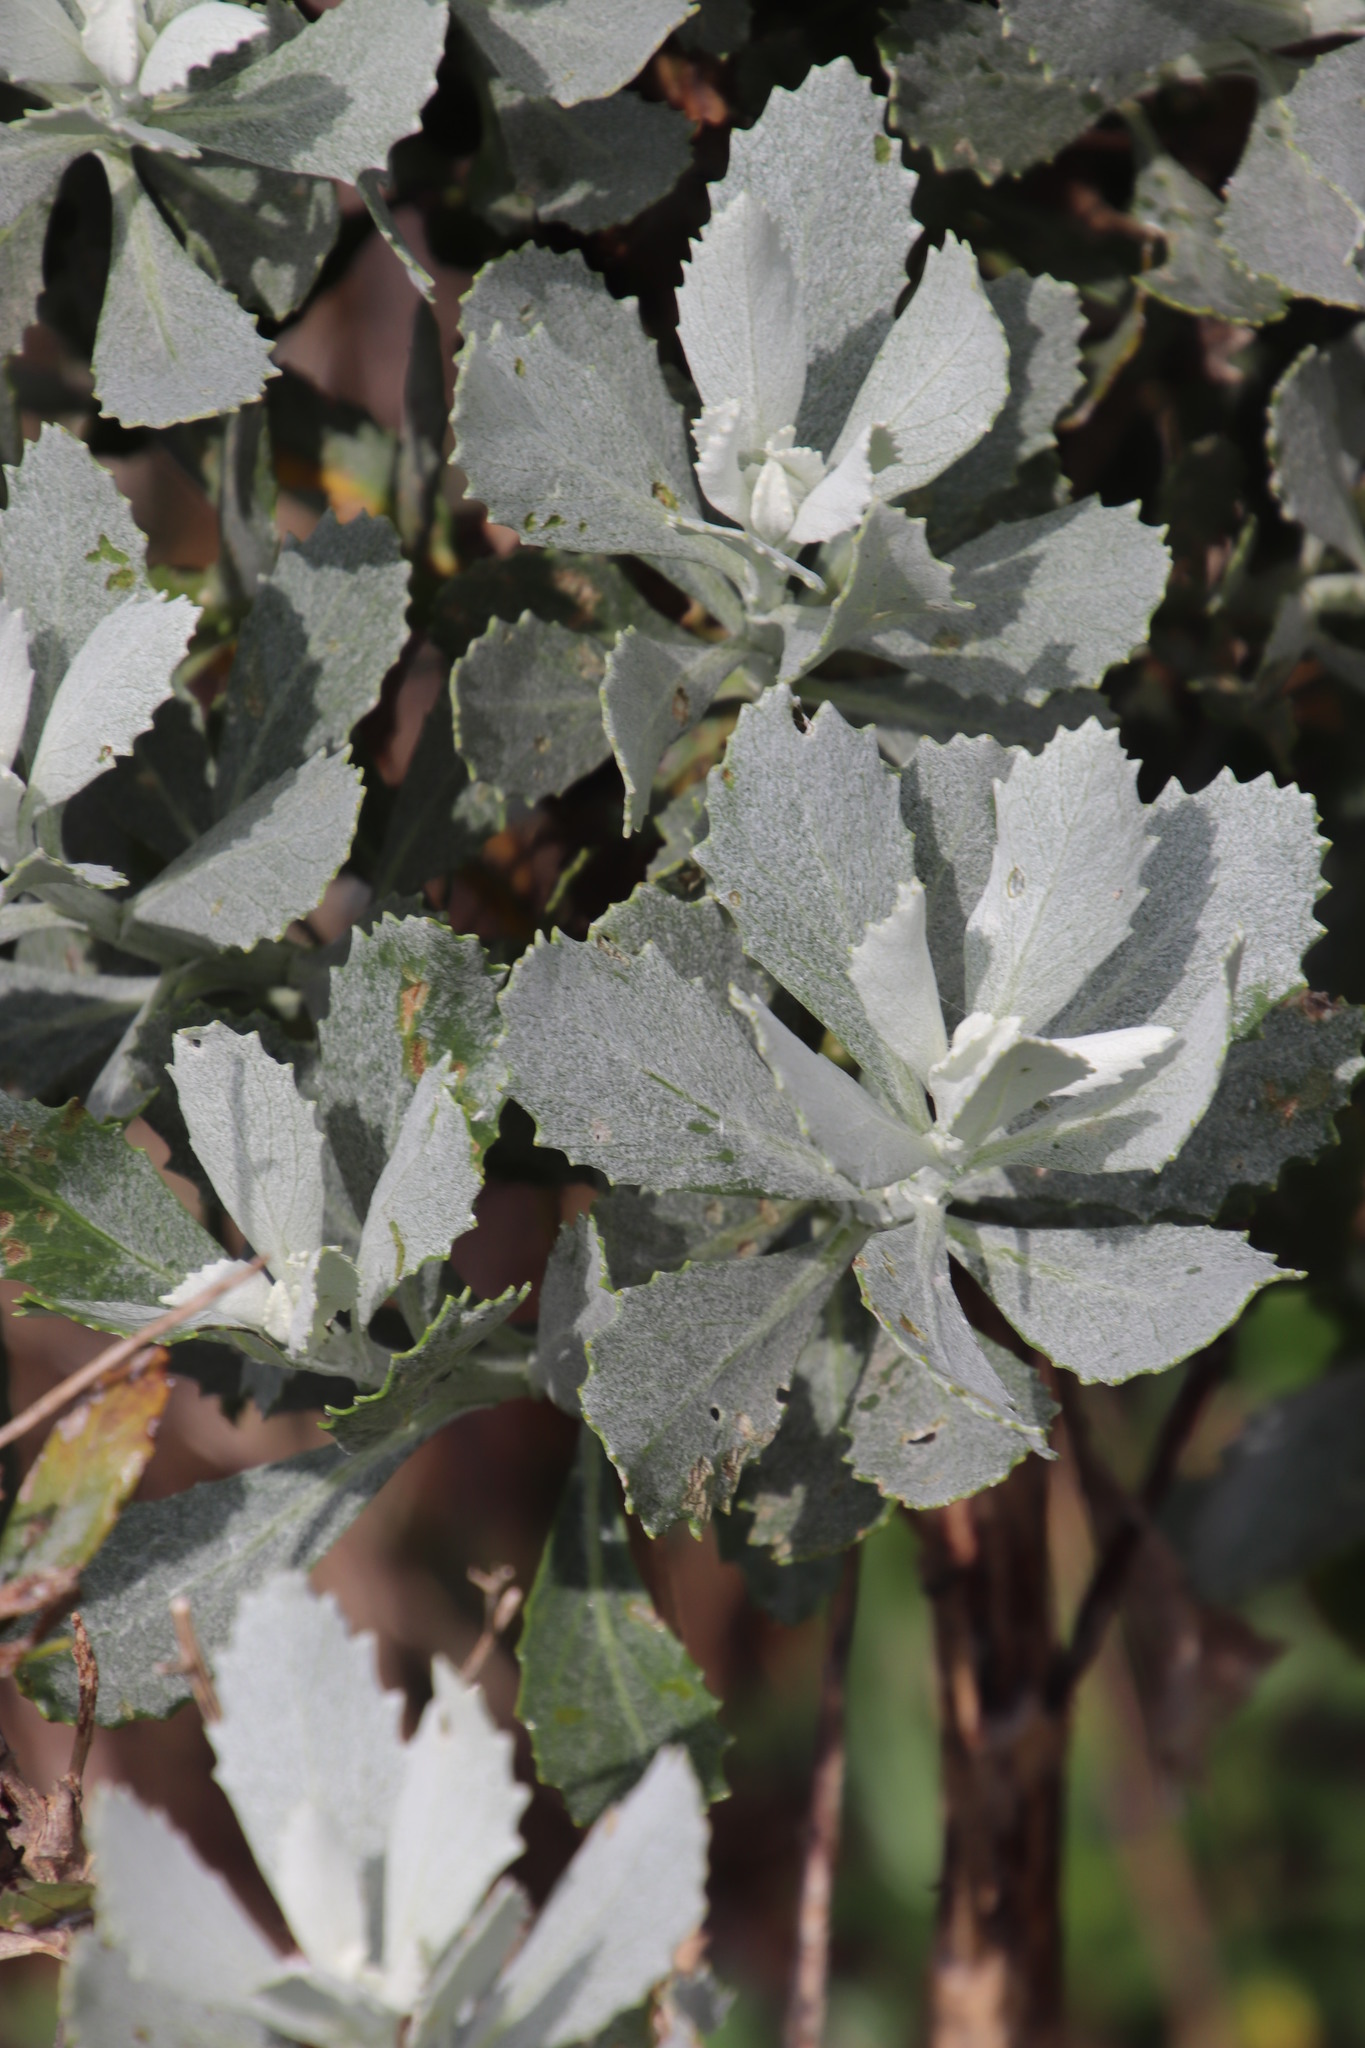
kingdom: Plantae
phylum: Tracheophyta
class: Magnoliopsida
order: Asterales
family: Asteraceae
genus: Senecio
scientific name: Senecio halimifolius
